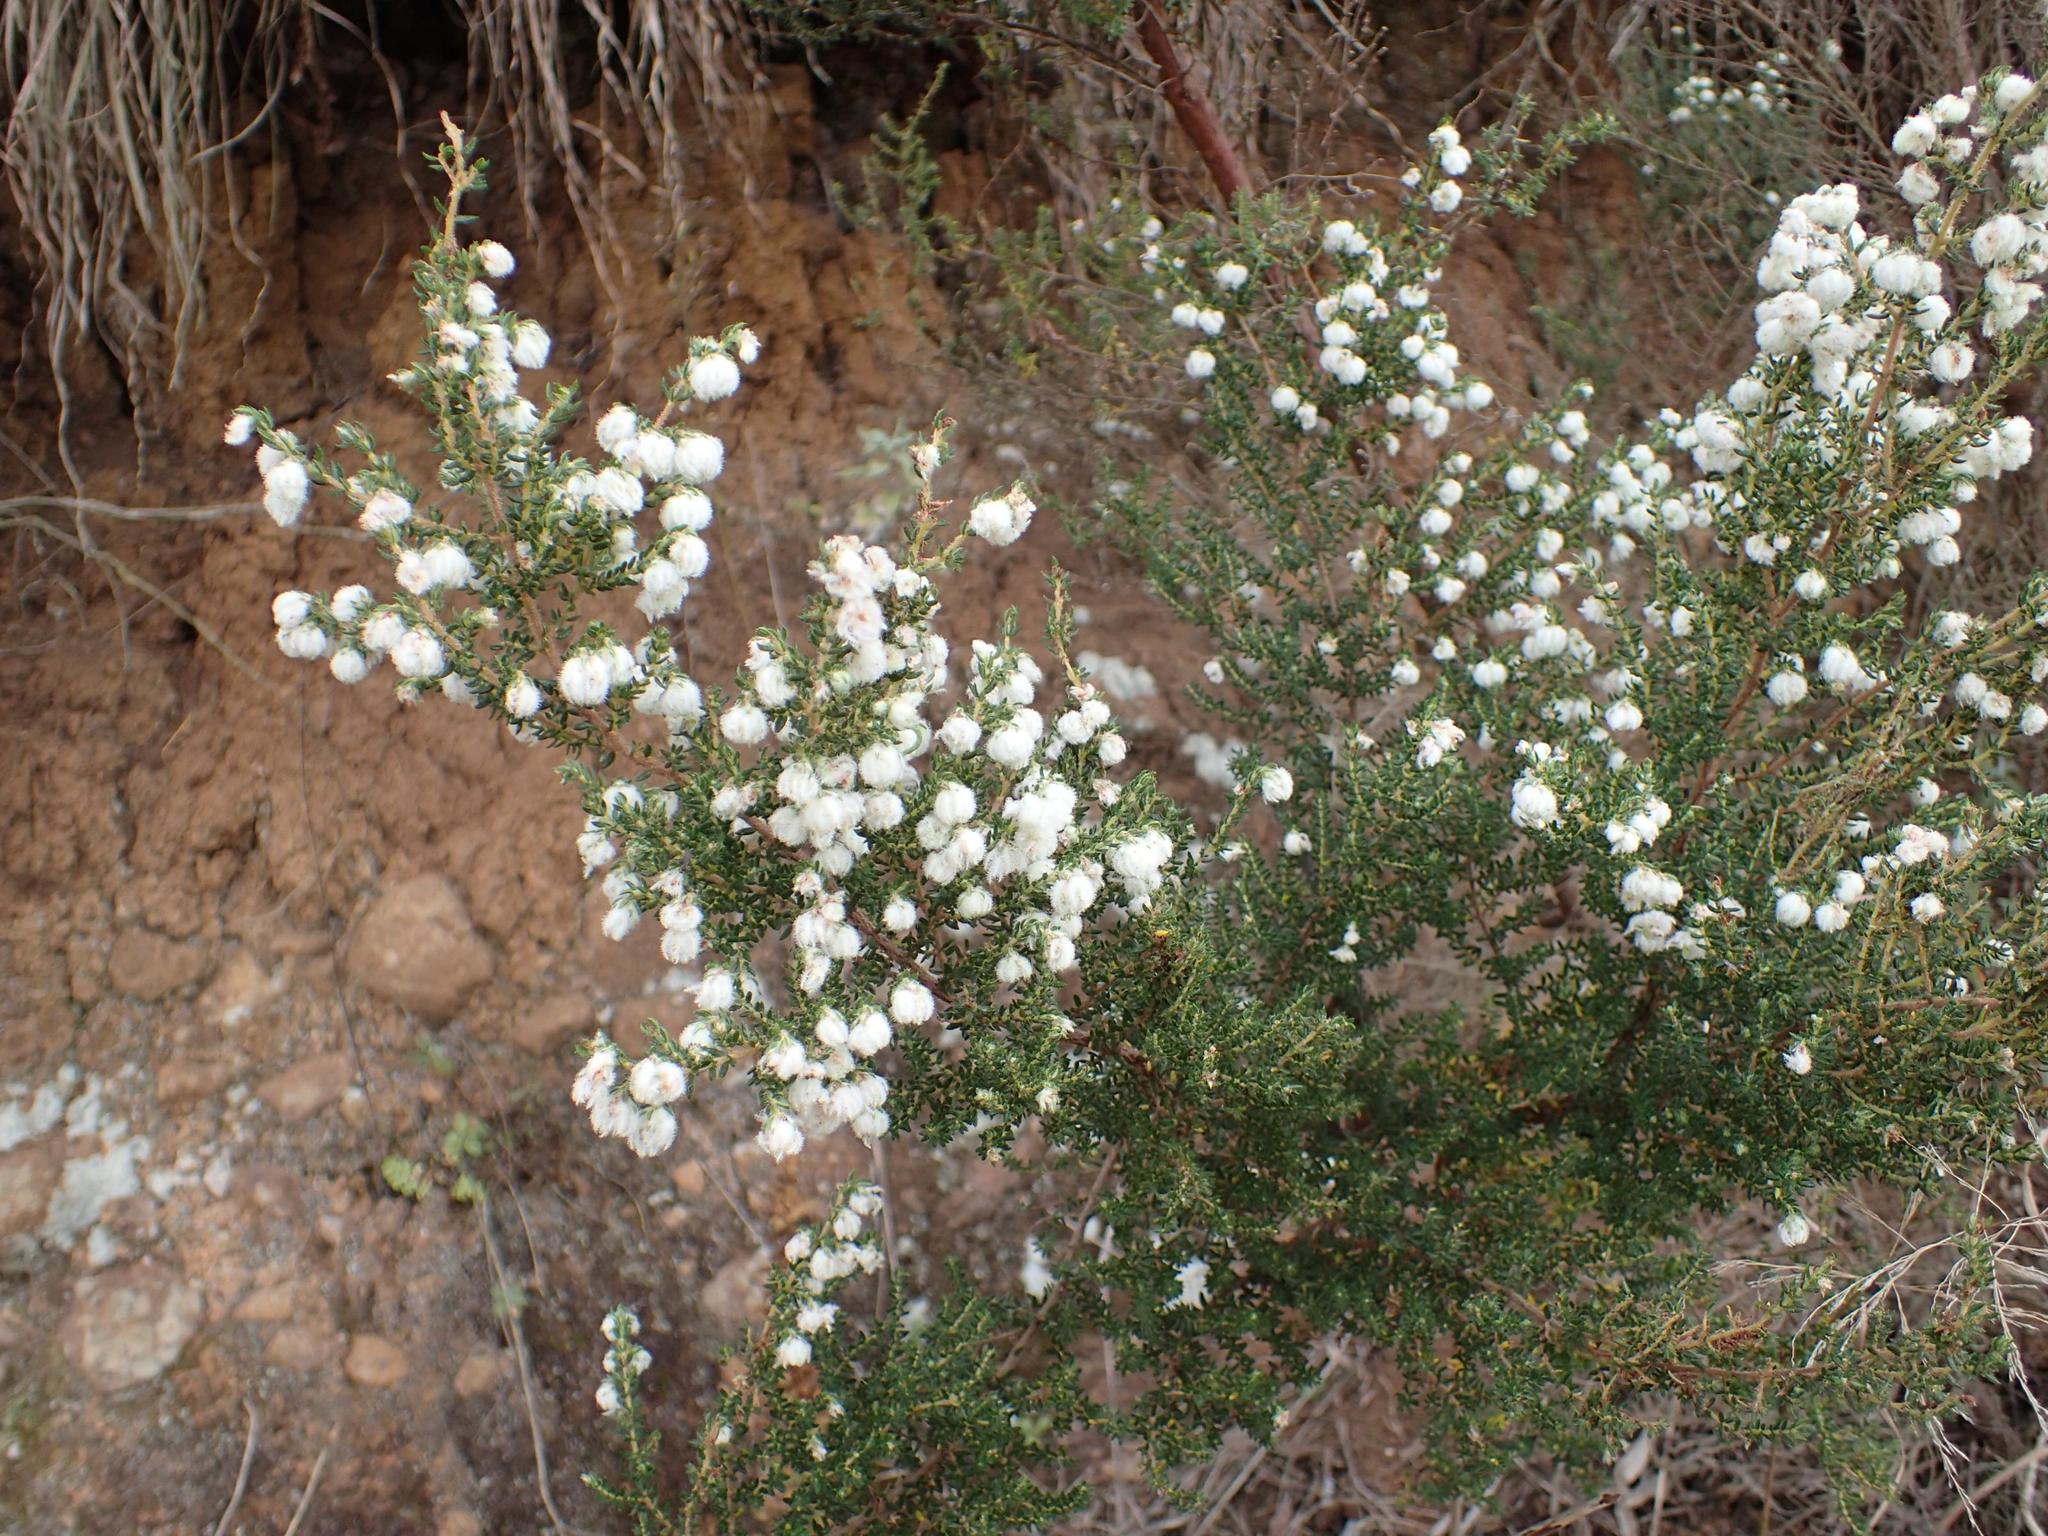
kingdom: Plantae
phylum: Tracheophyta
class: Magnoliopsida
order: Ericales
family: Ericaceae
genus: Erica
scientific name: Erica cooperi
